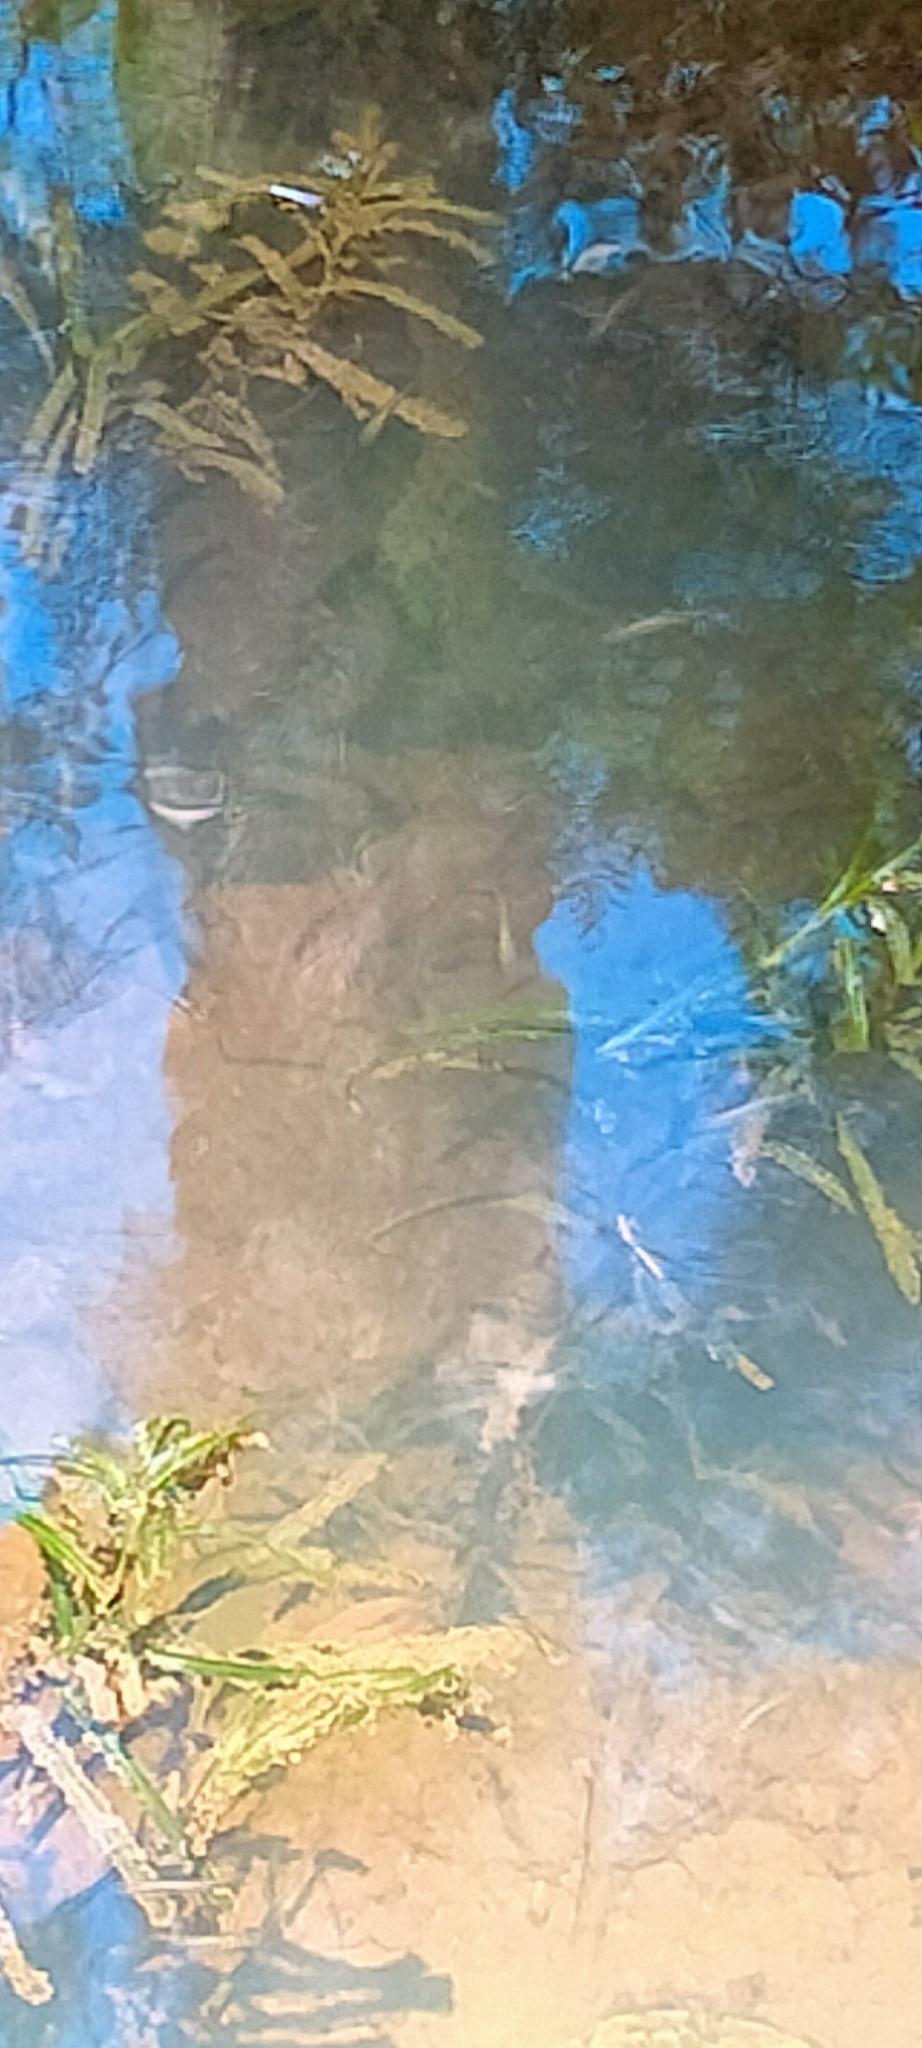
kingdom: Plantae
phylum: Tracheophyta
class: Liliopsida
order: Alismatales
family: Potamogetonaceae
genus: Potamogeton
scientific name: Potamogeton crispus
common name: Curled pondweed
